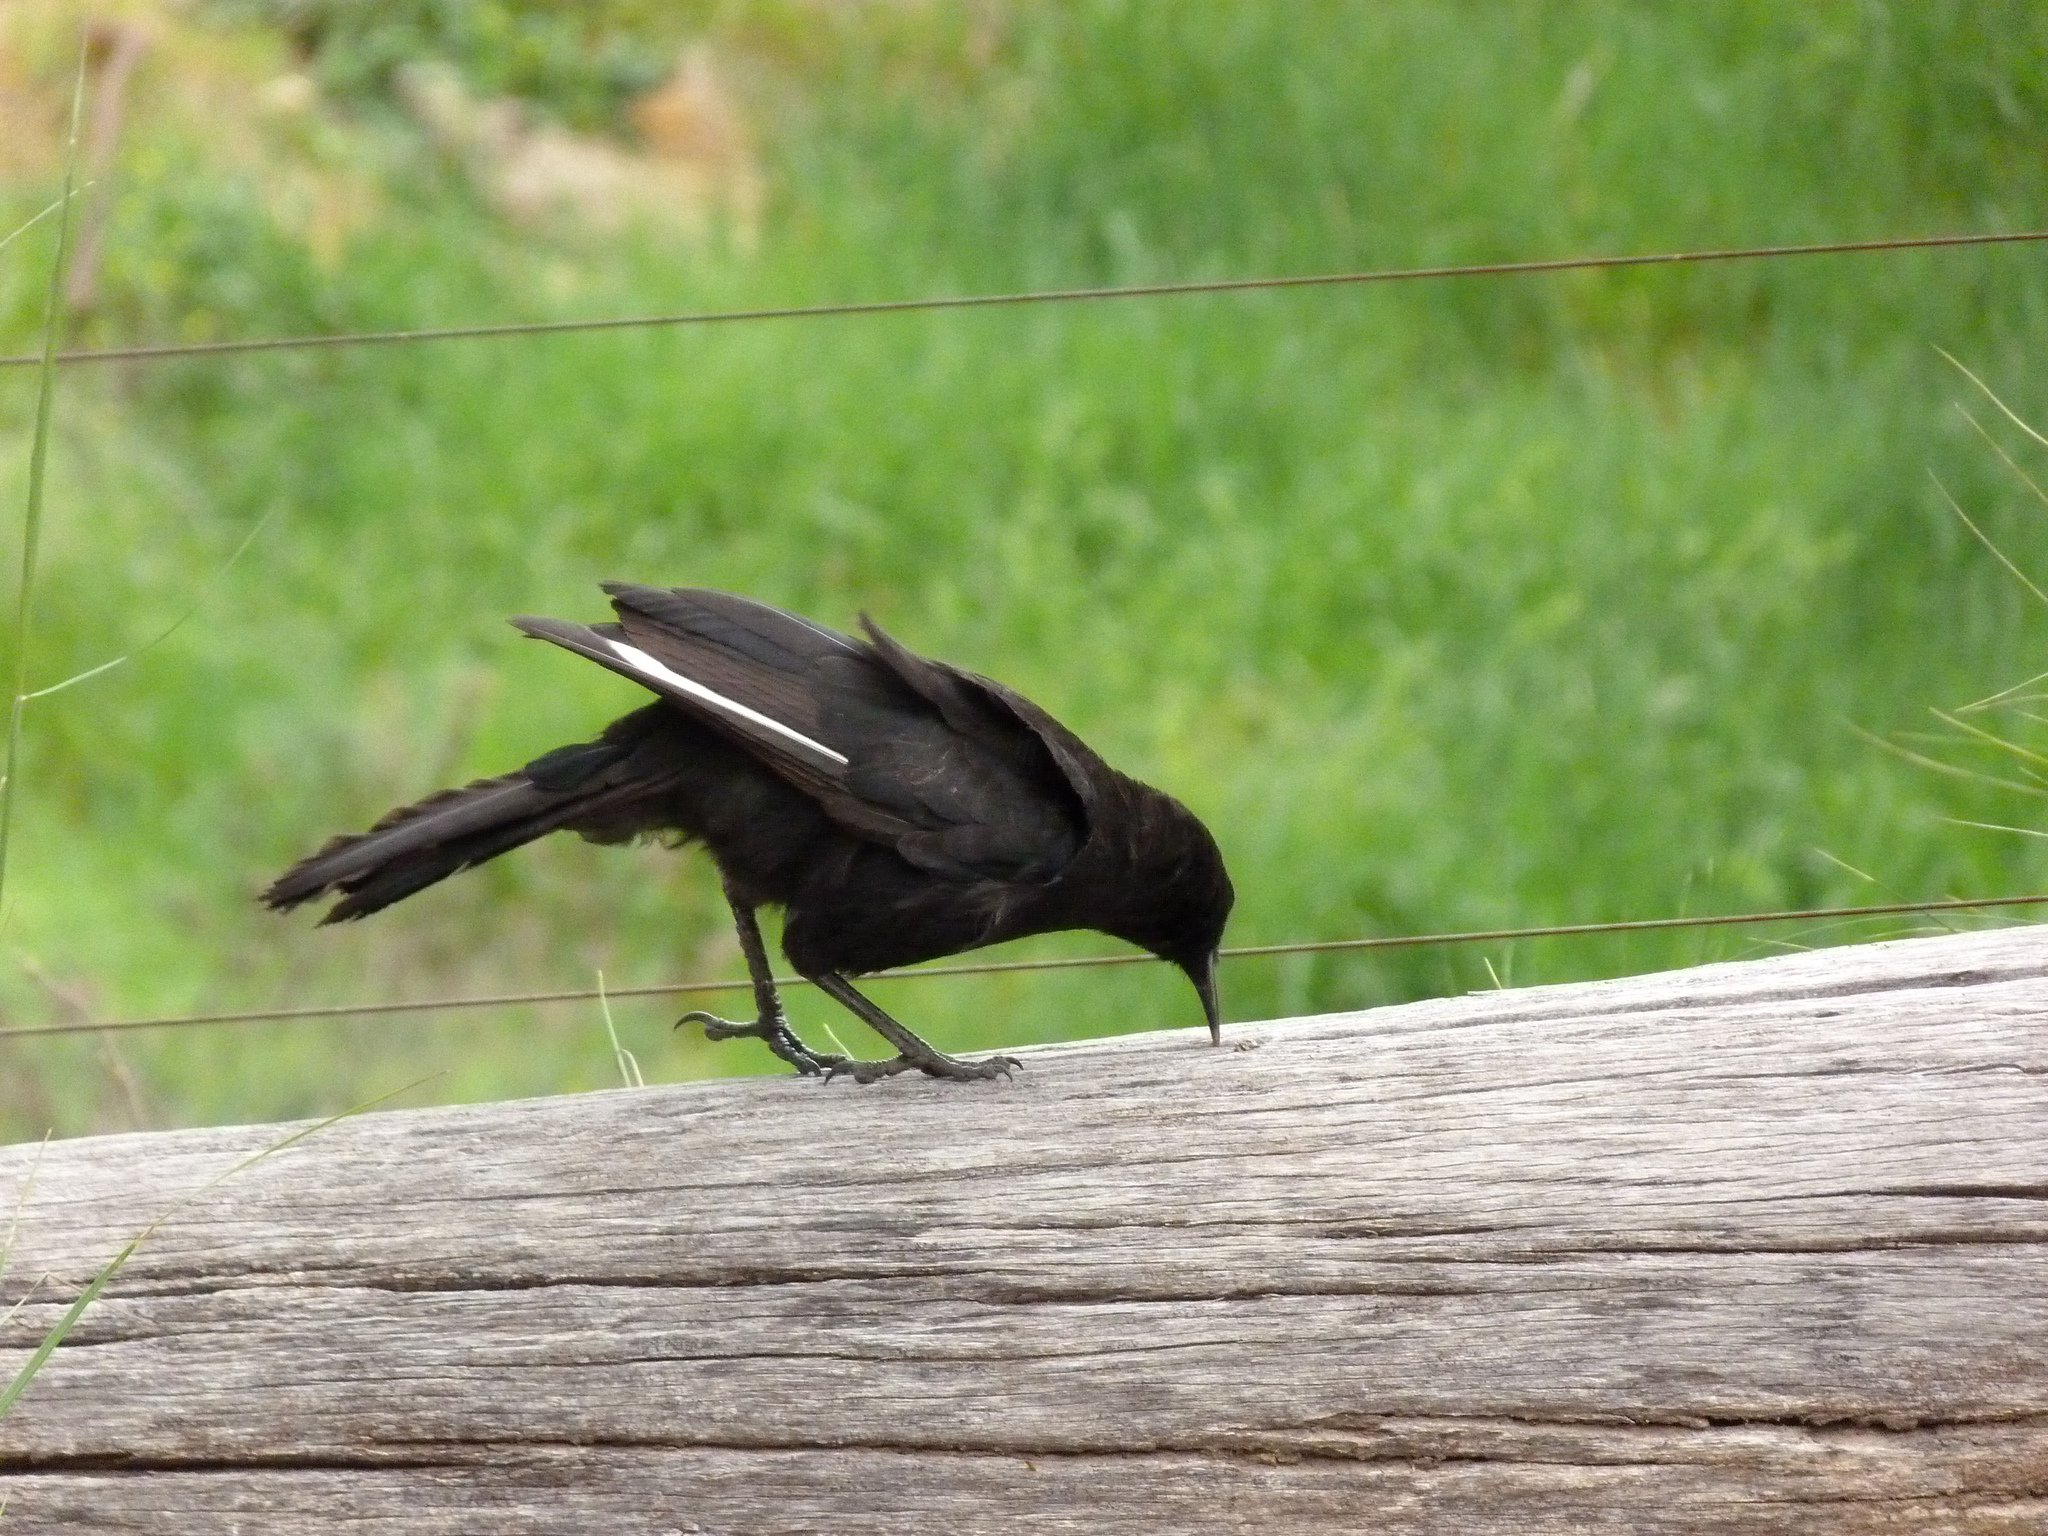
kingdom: Animalia
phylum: Chordata
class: Aves
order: Passeriformes
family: Corcoracidae
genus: Corcorax
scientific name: Corcorax melanoramphos
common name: White-winged chough
